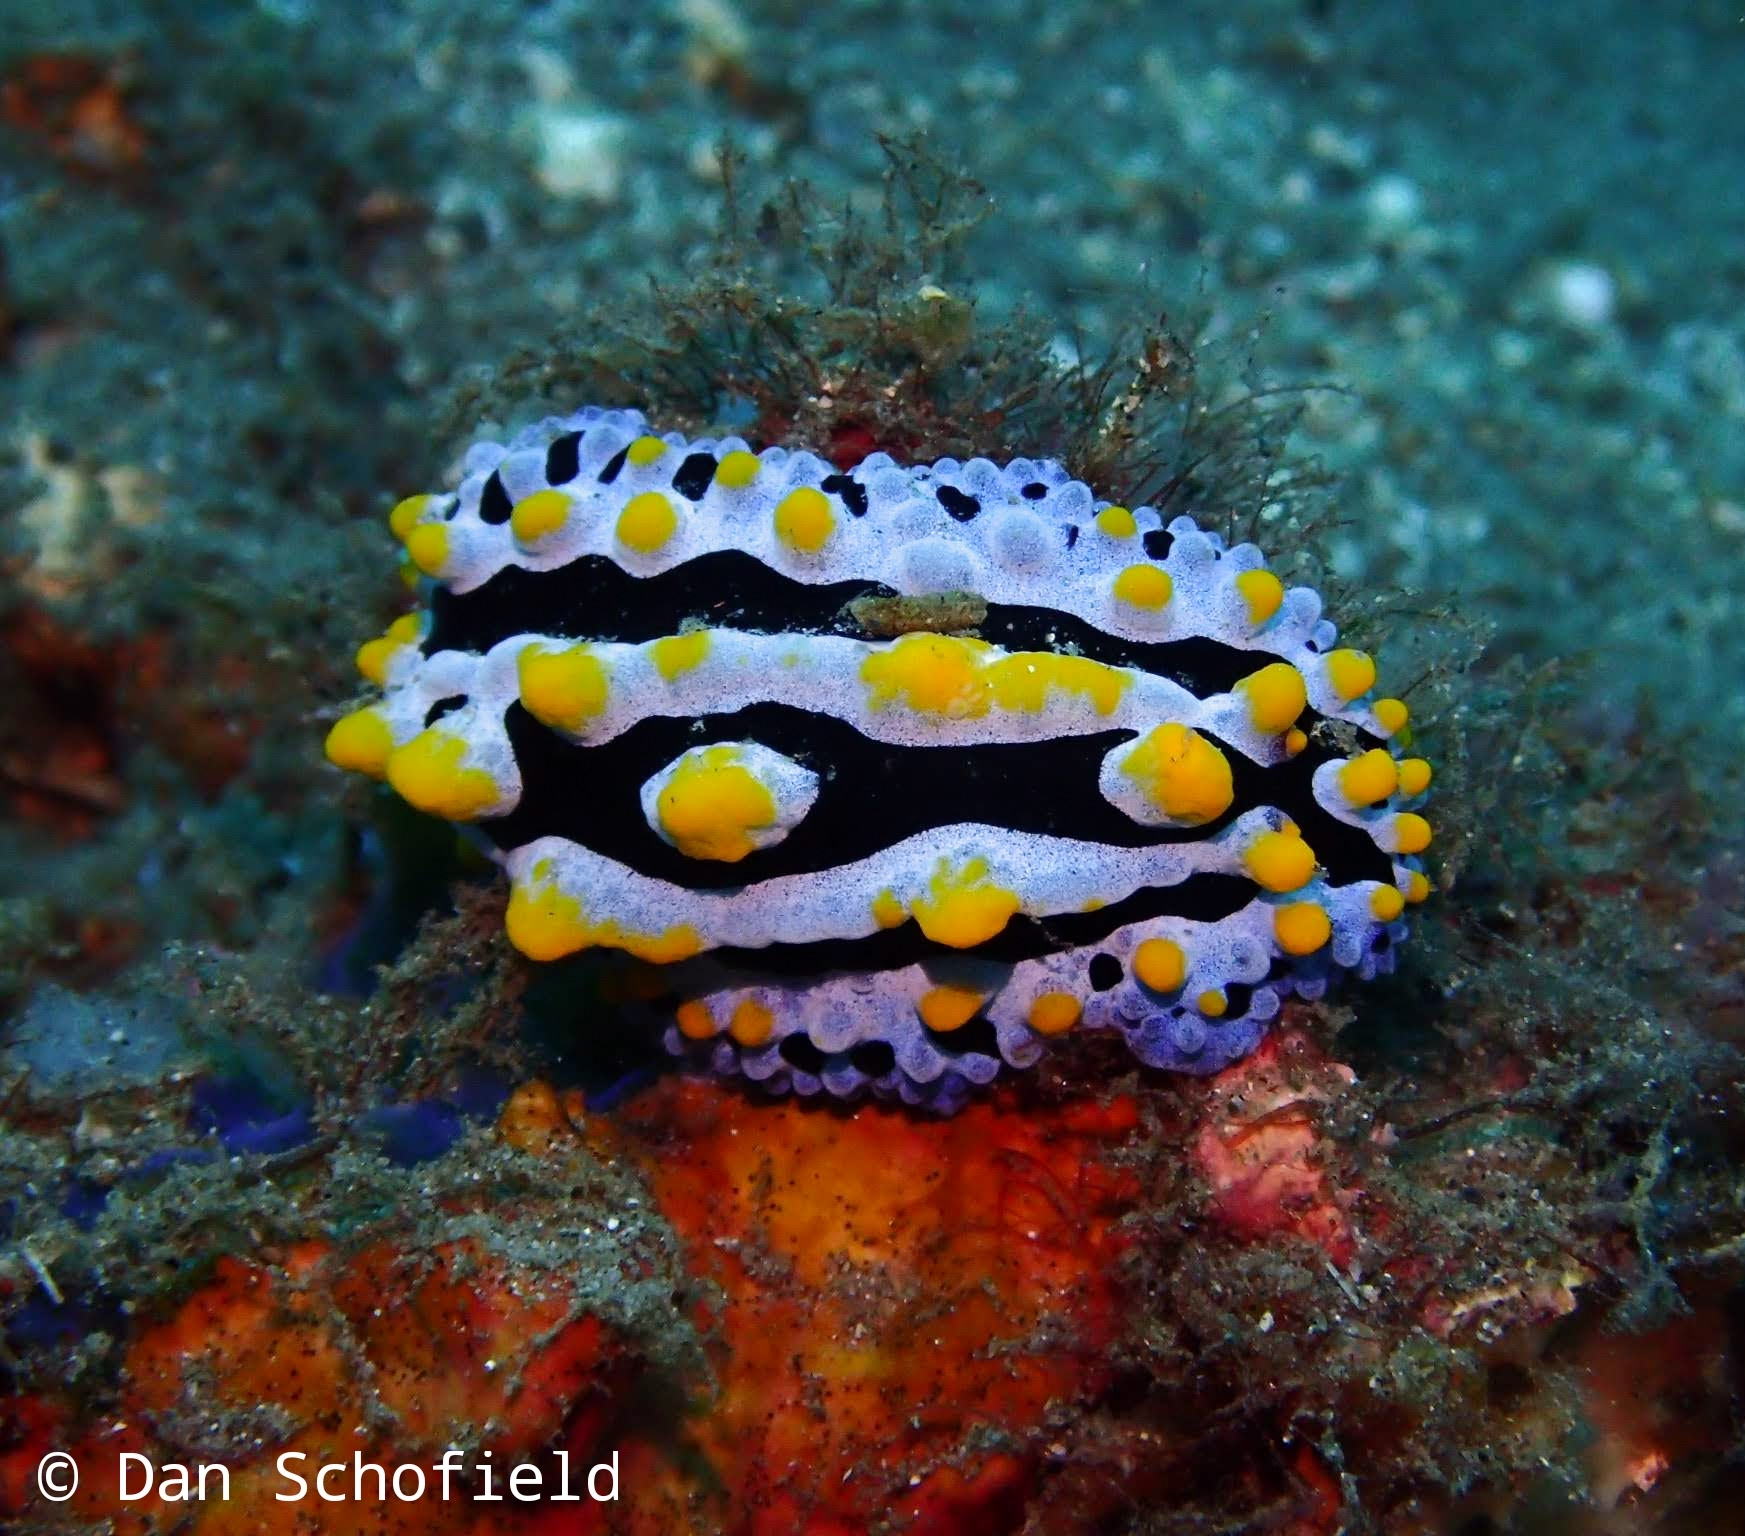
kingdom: Animalia
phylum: Mollusca
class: Gastropoda
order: Nudibranchia
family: Phyllidiidae
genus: Phyllidia
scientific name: Phyllidia coelestis
